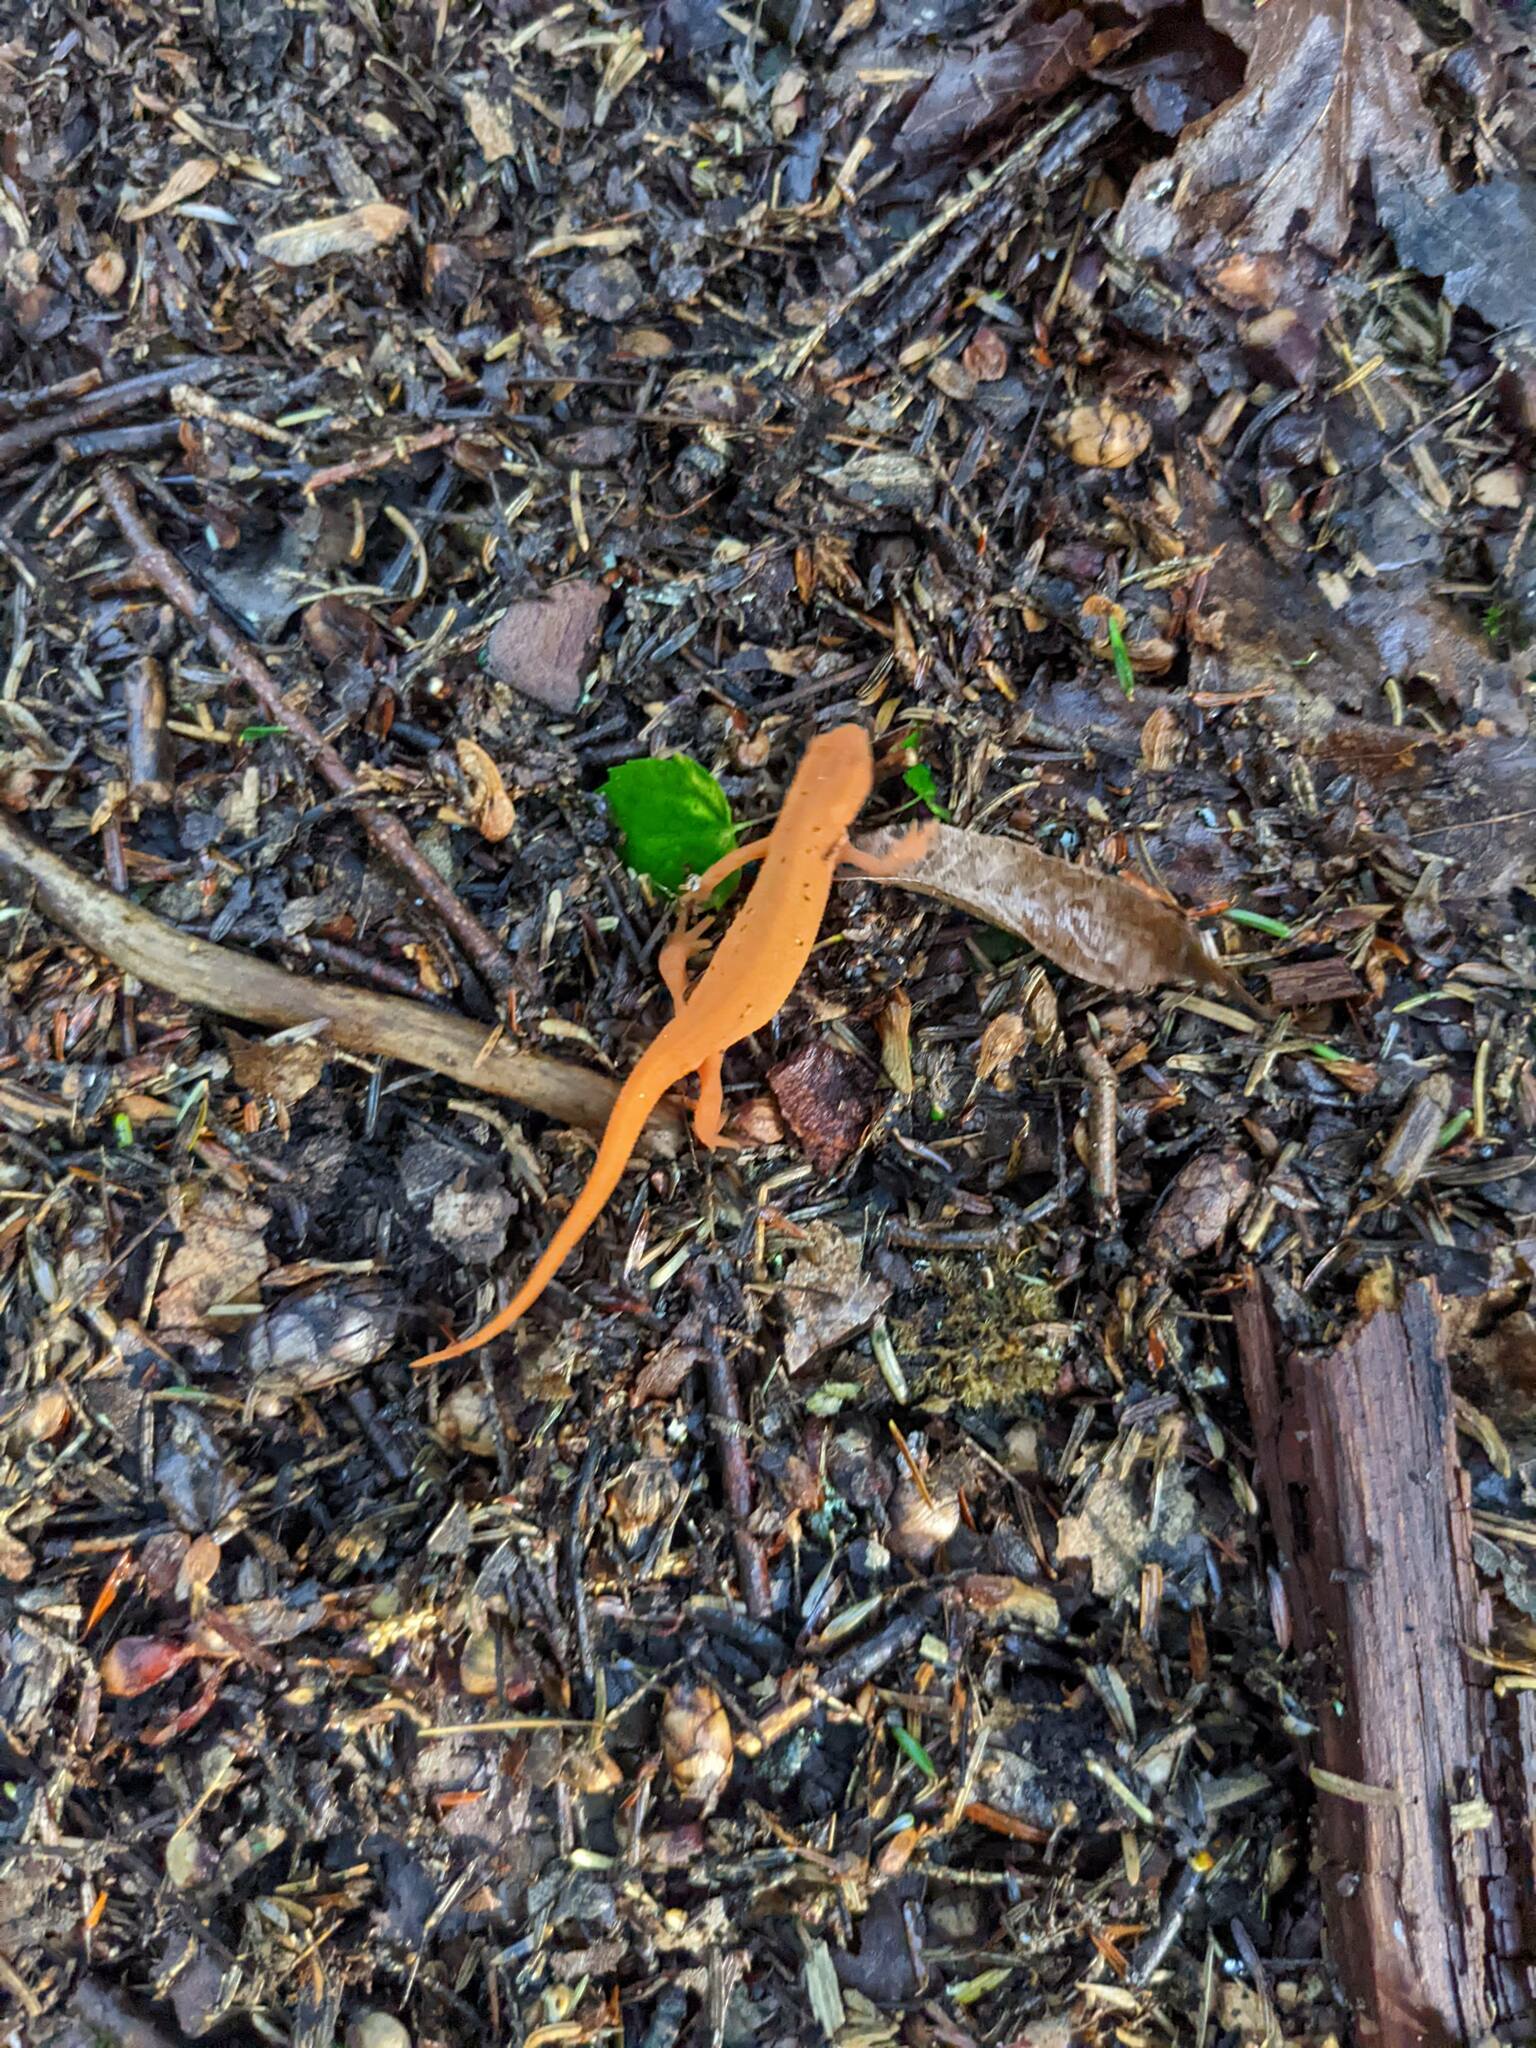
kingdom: Animalia
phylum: Chordata
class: Amphibia
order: Caudata
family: Salamandridae
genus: Notophthalmus
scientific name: Notophthalmus viridescens
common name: Eastern newt
